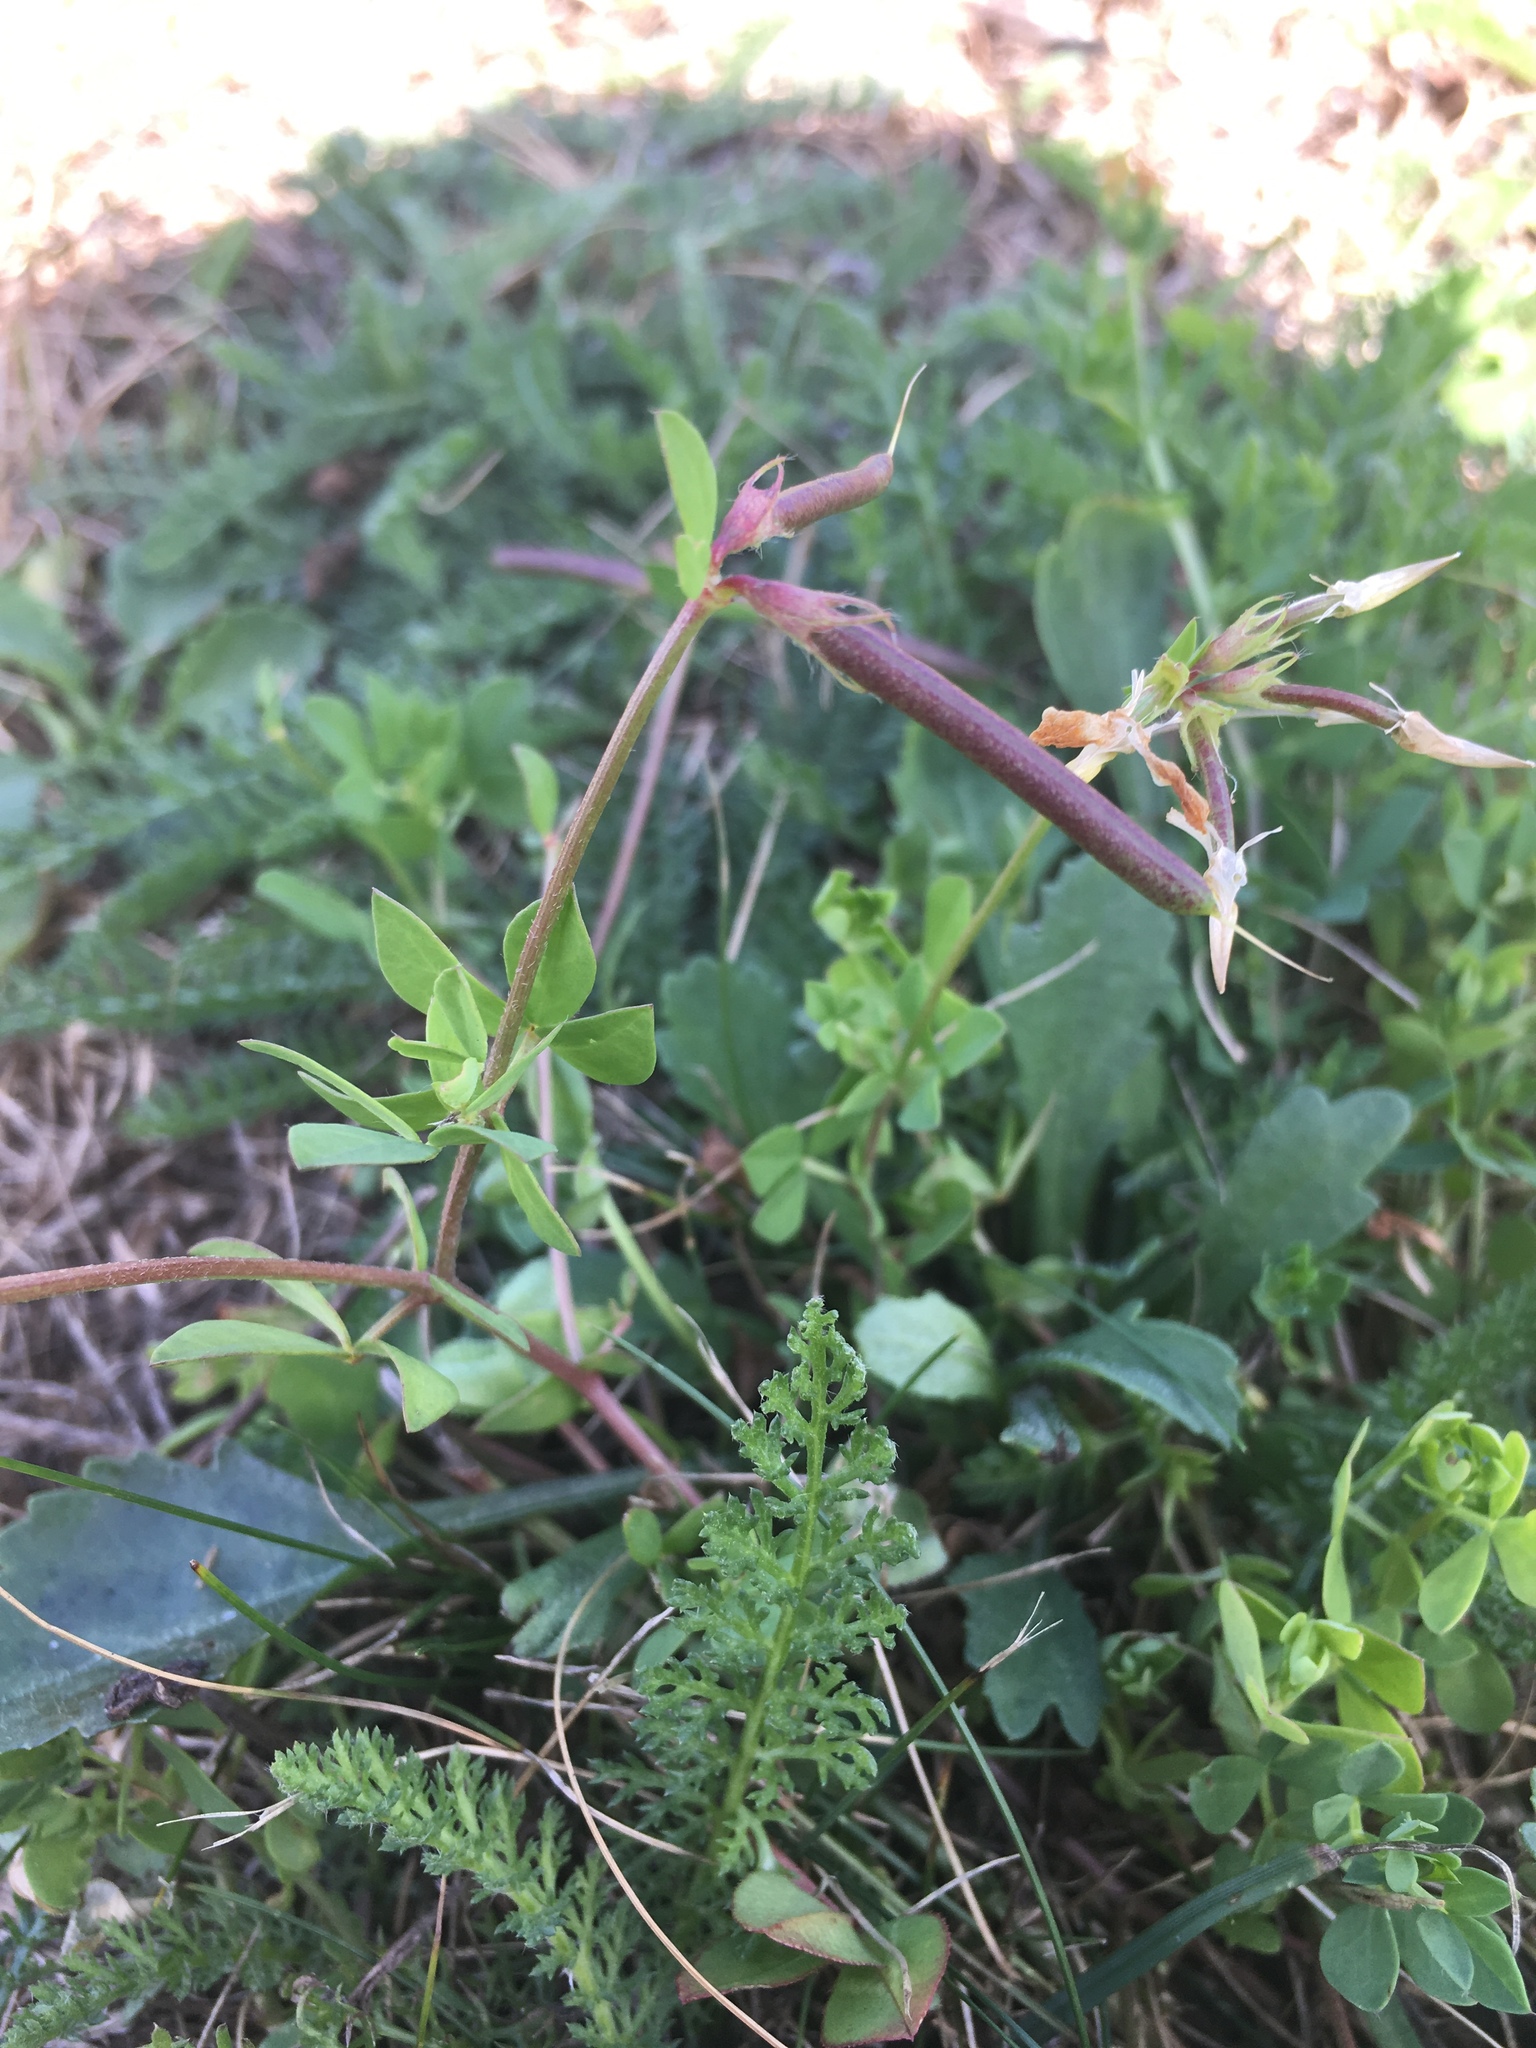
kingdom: Plantae
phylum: Tracheophyta
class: Magnoliopsida
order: Fabales
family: Fabaceae
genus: Lotus
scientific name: Lotus corniculatus
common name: Common bird's-foot-trefoil
